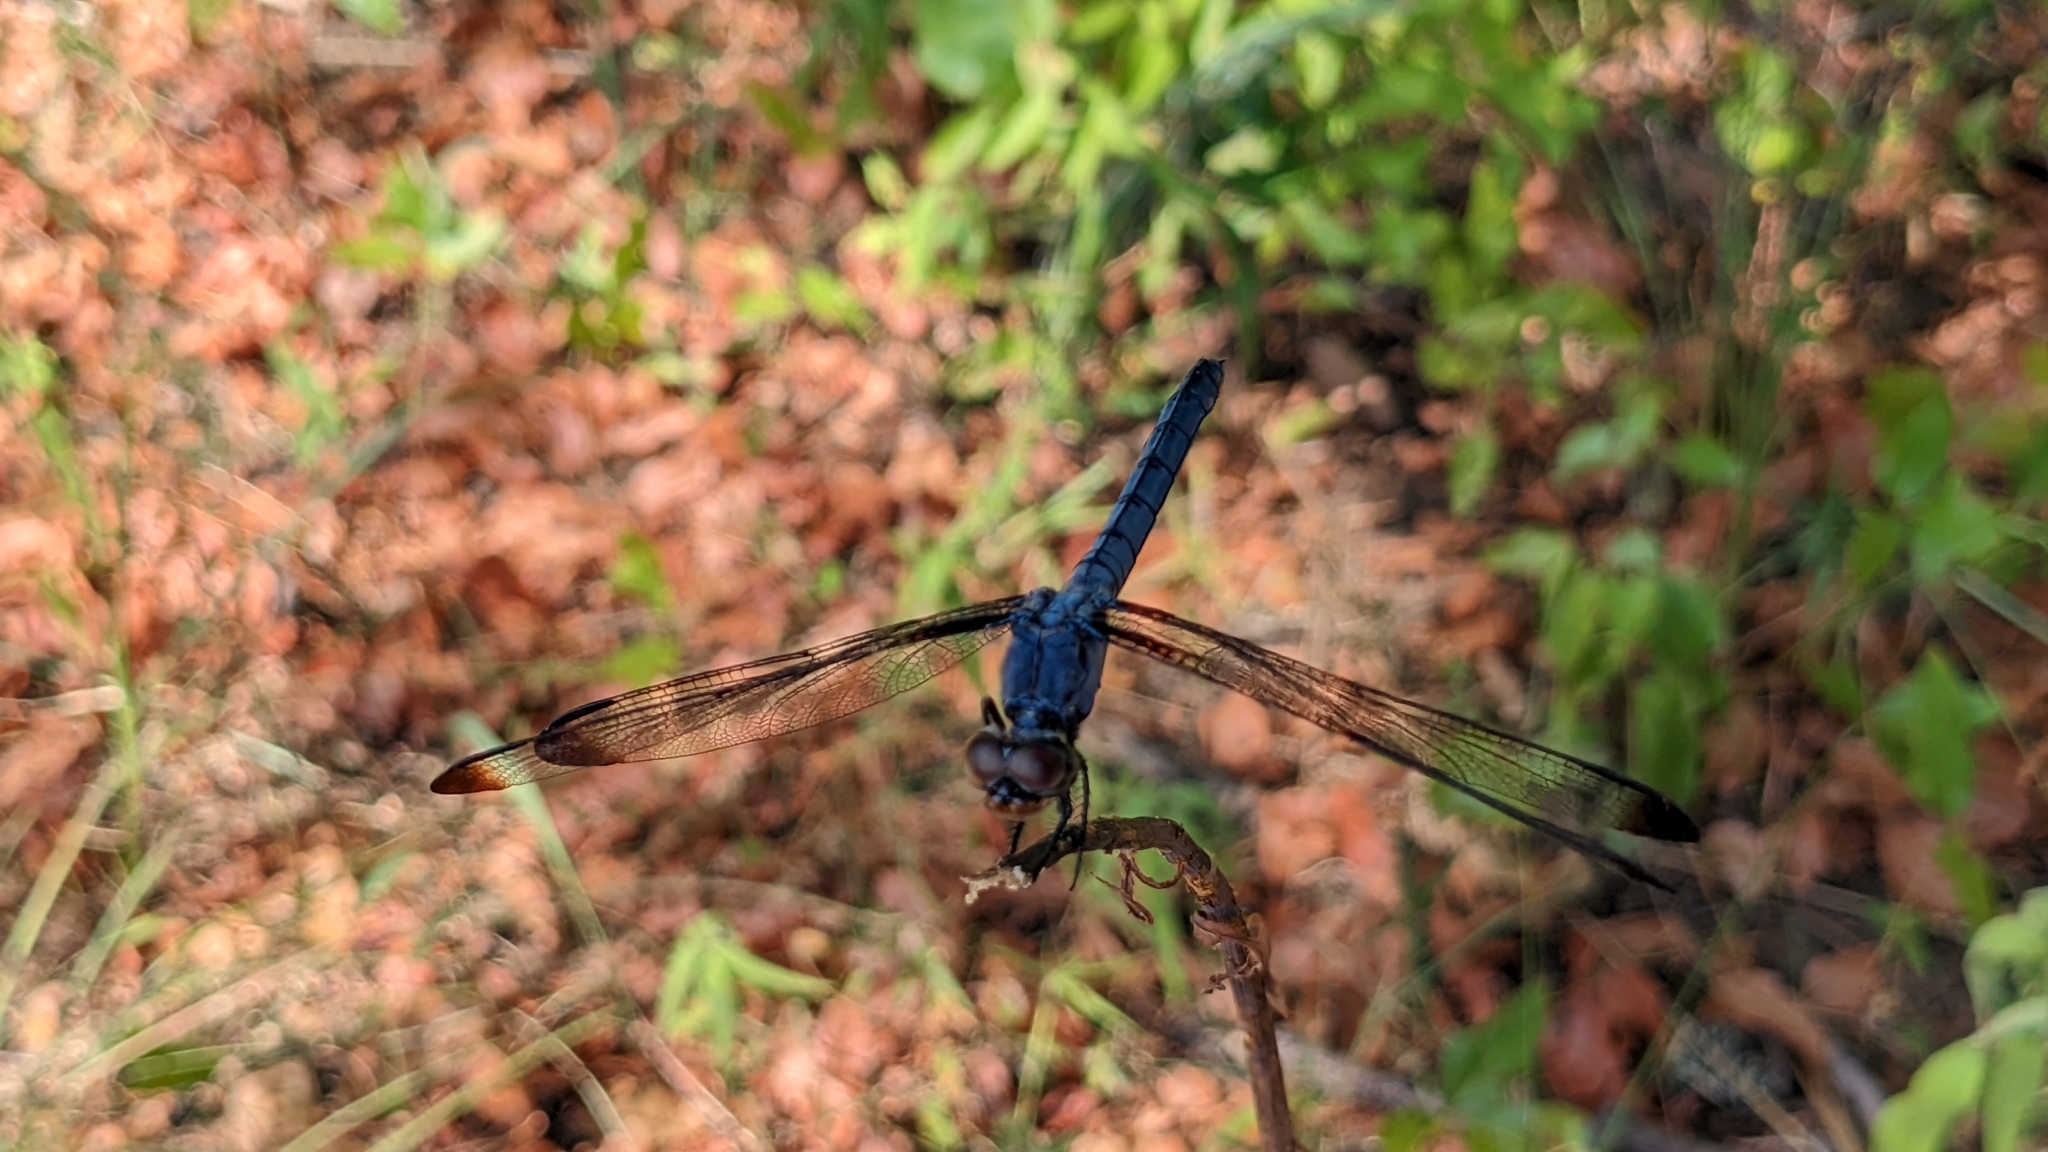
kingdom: Animalia
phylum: Arthropoda
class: Insecta
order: Odonata
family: Libellulidae
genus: Libellula
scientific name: Libellula incesta
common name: Slaty skimmer
